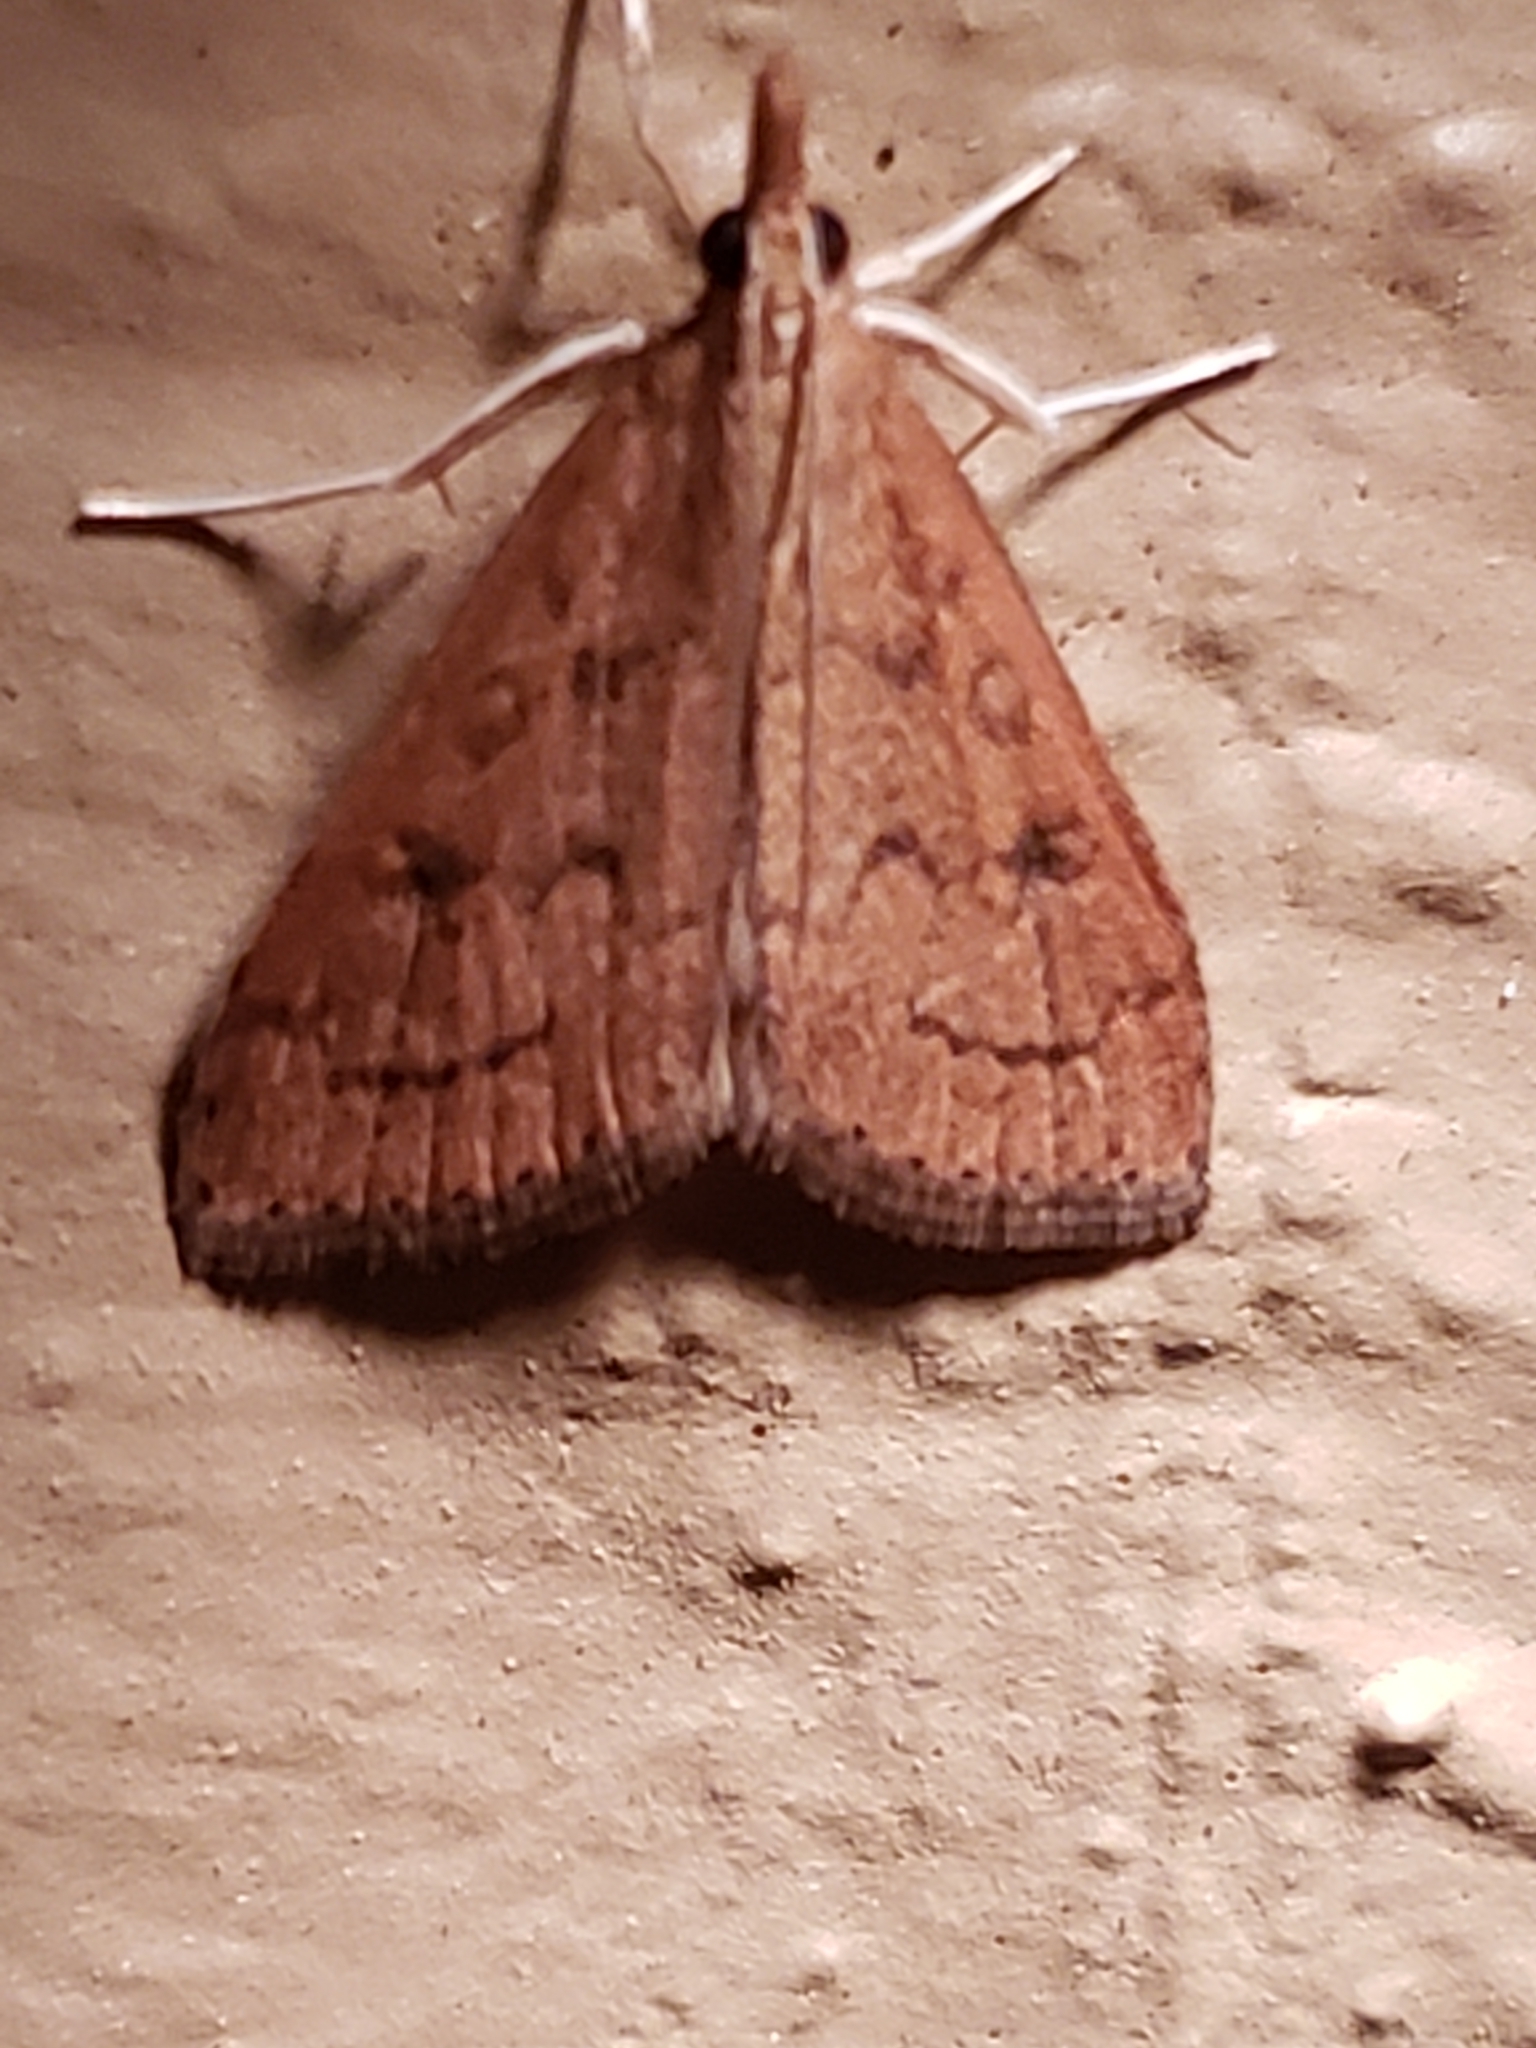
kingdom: Animalia
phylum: Arthropoda
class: Insecta
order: Lepidoptera
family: Crambidae
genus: Udea
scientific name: Udea rubigalis
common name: Celery leaftier moth
